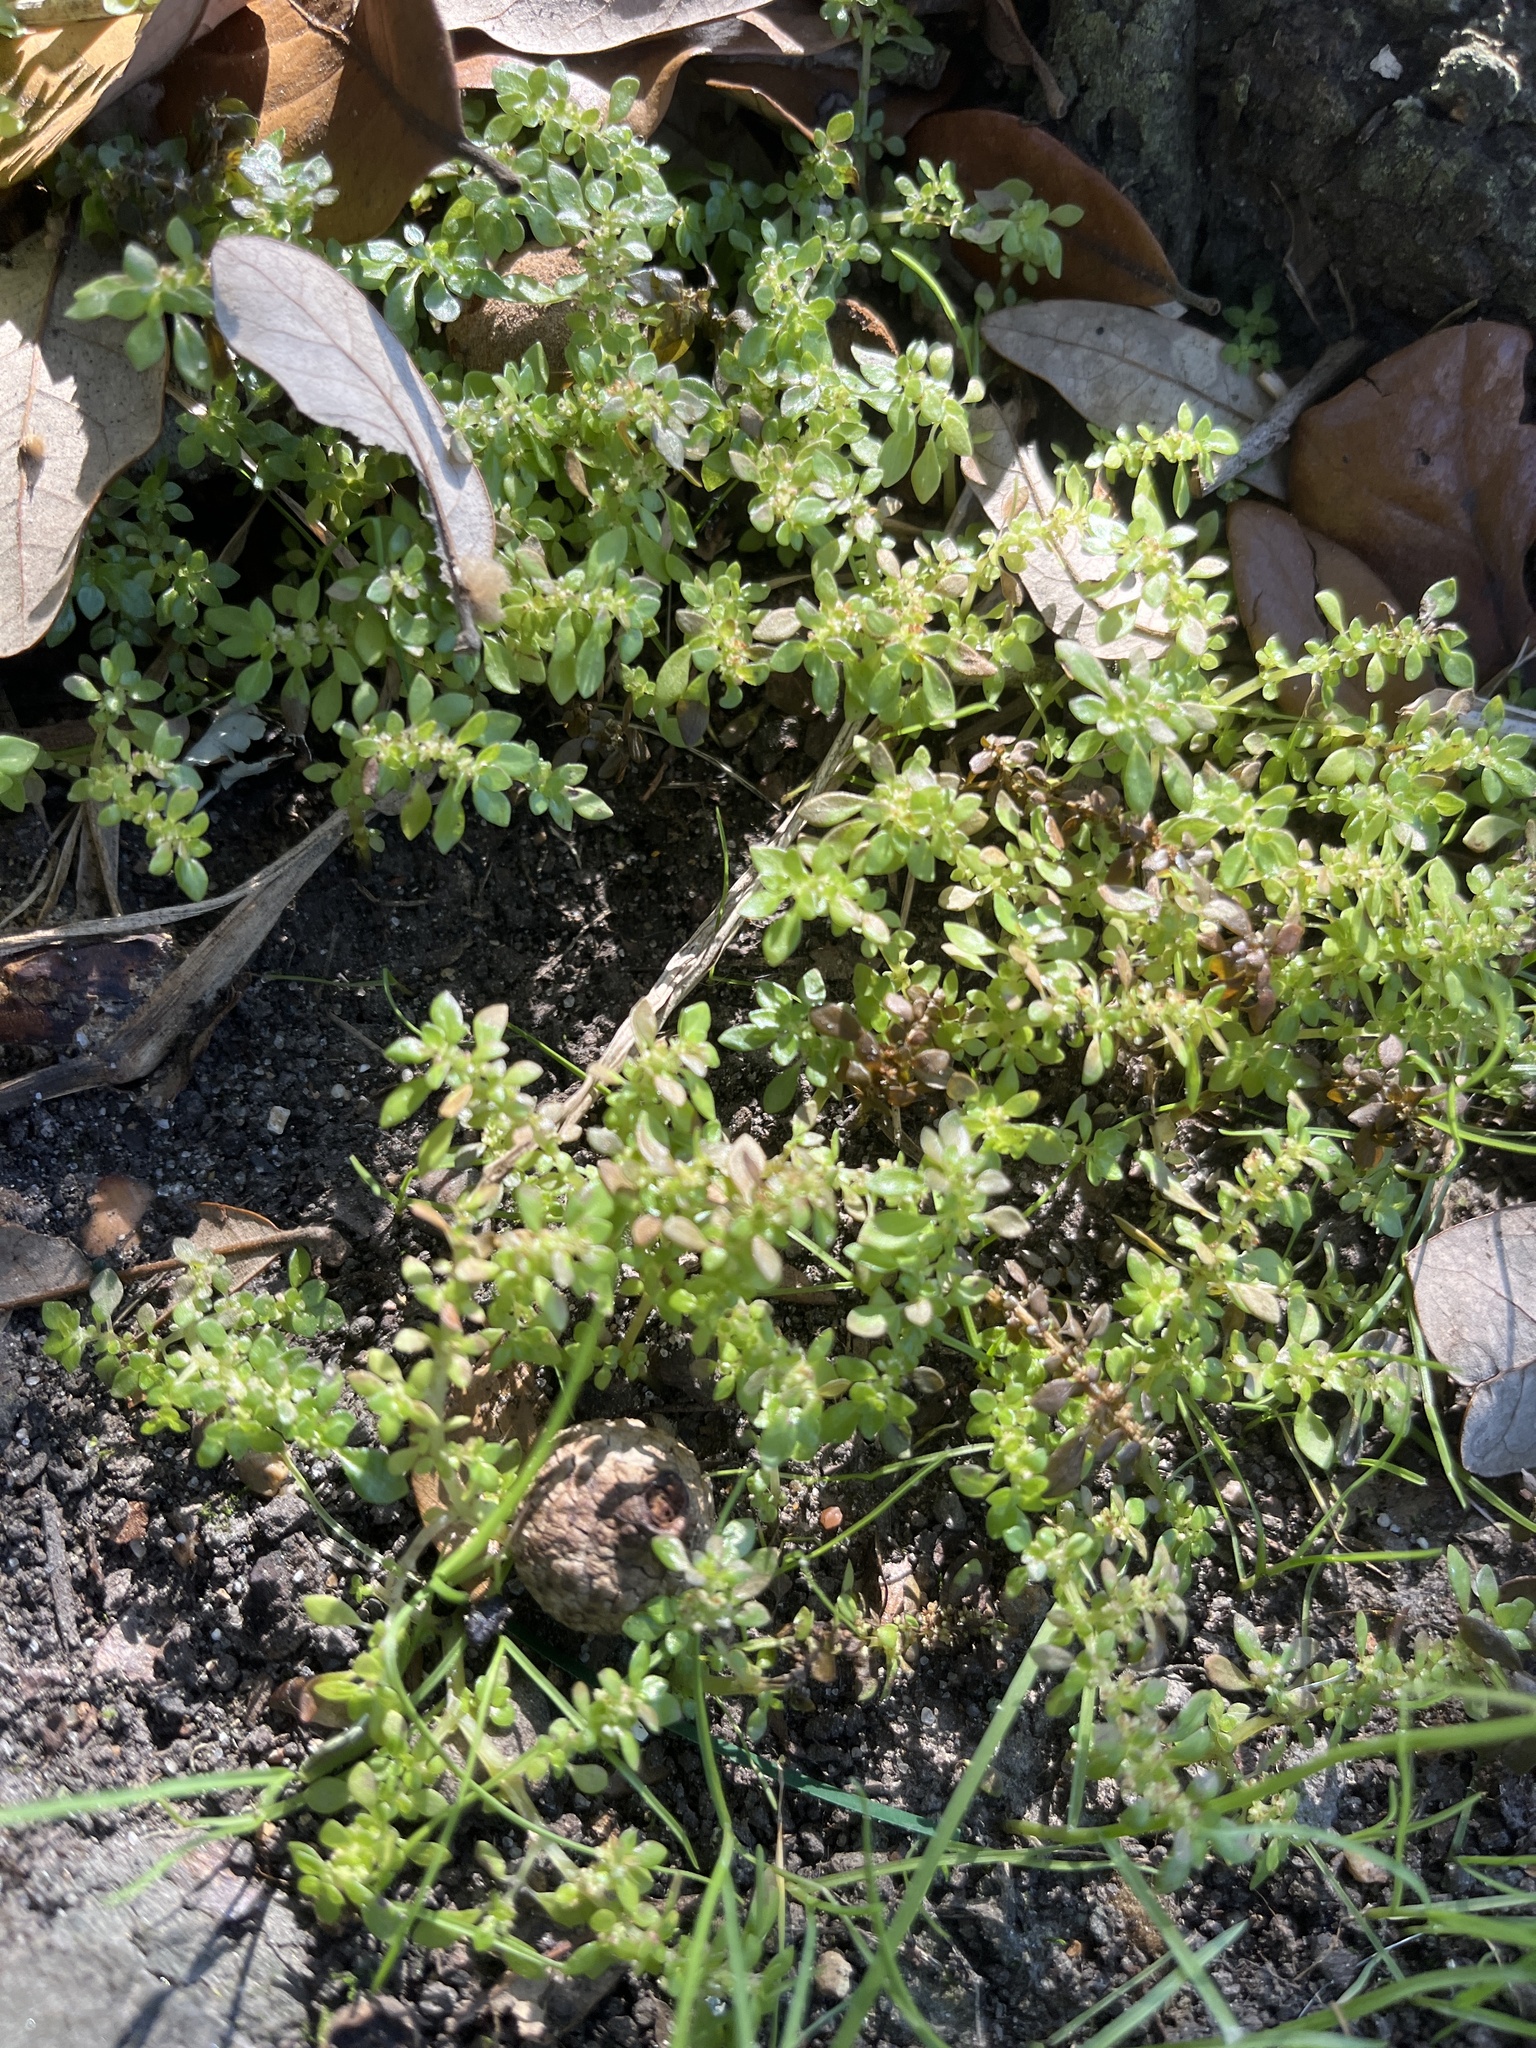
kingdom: Plantae
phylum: Tracheophyta
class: Magnoliopsida
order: Rosales
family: Urticaceae
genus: Pilea
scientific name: Pilea microphylla
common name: Artillery-plant
